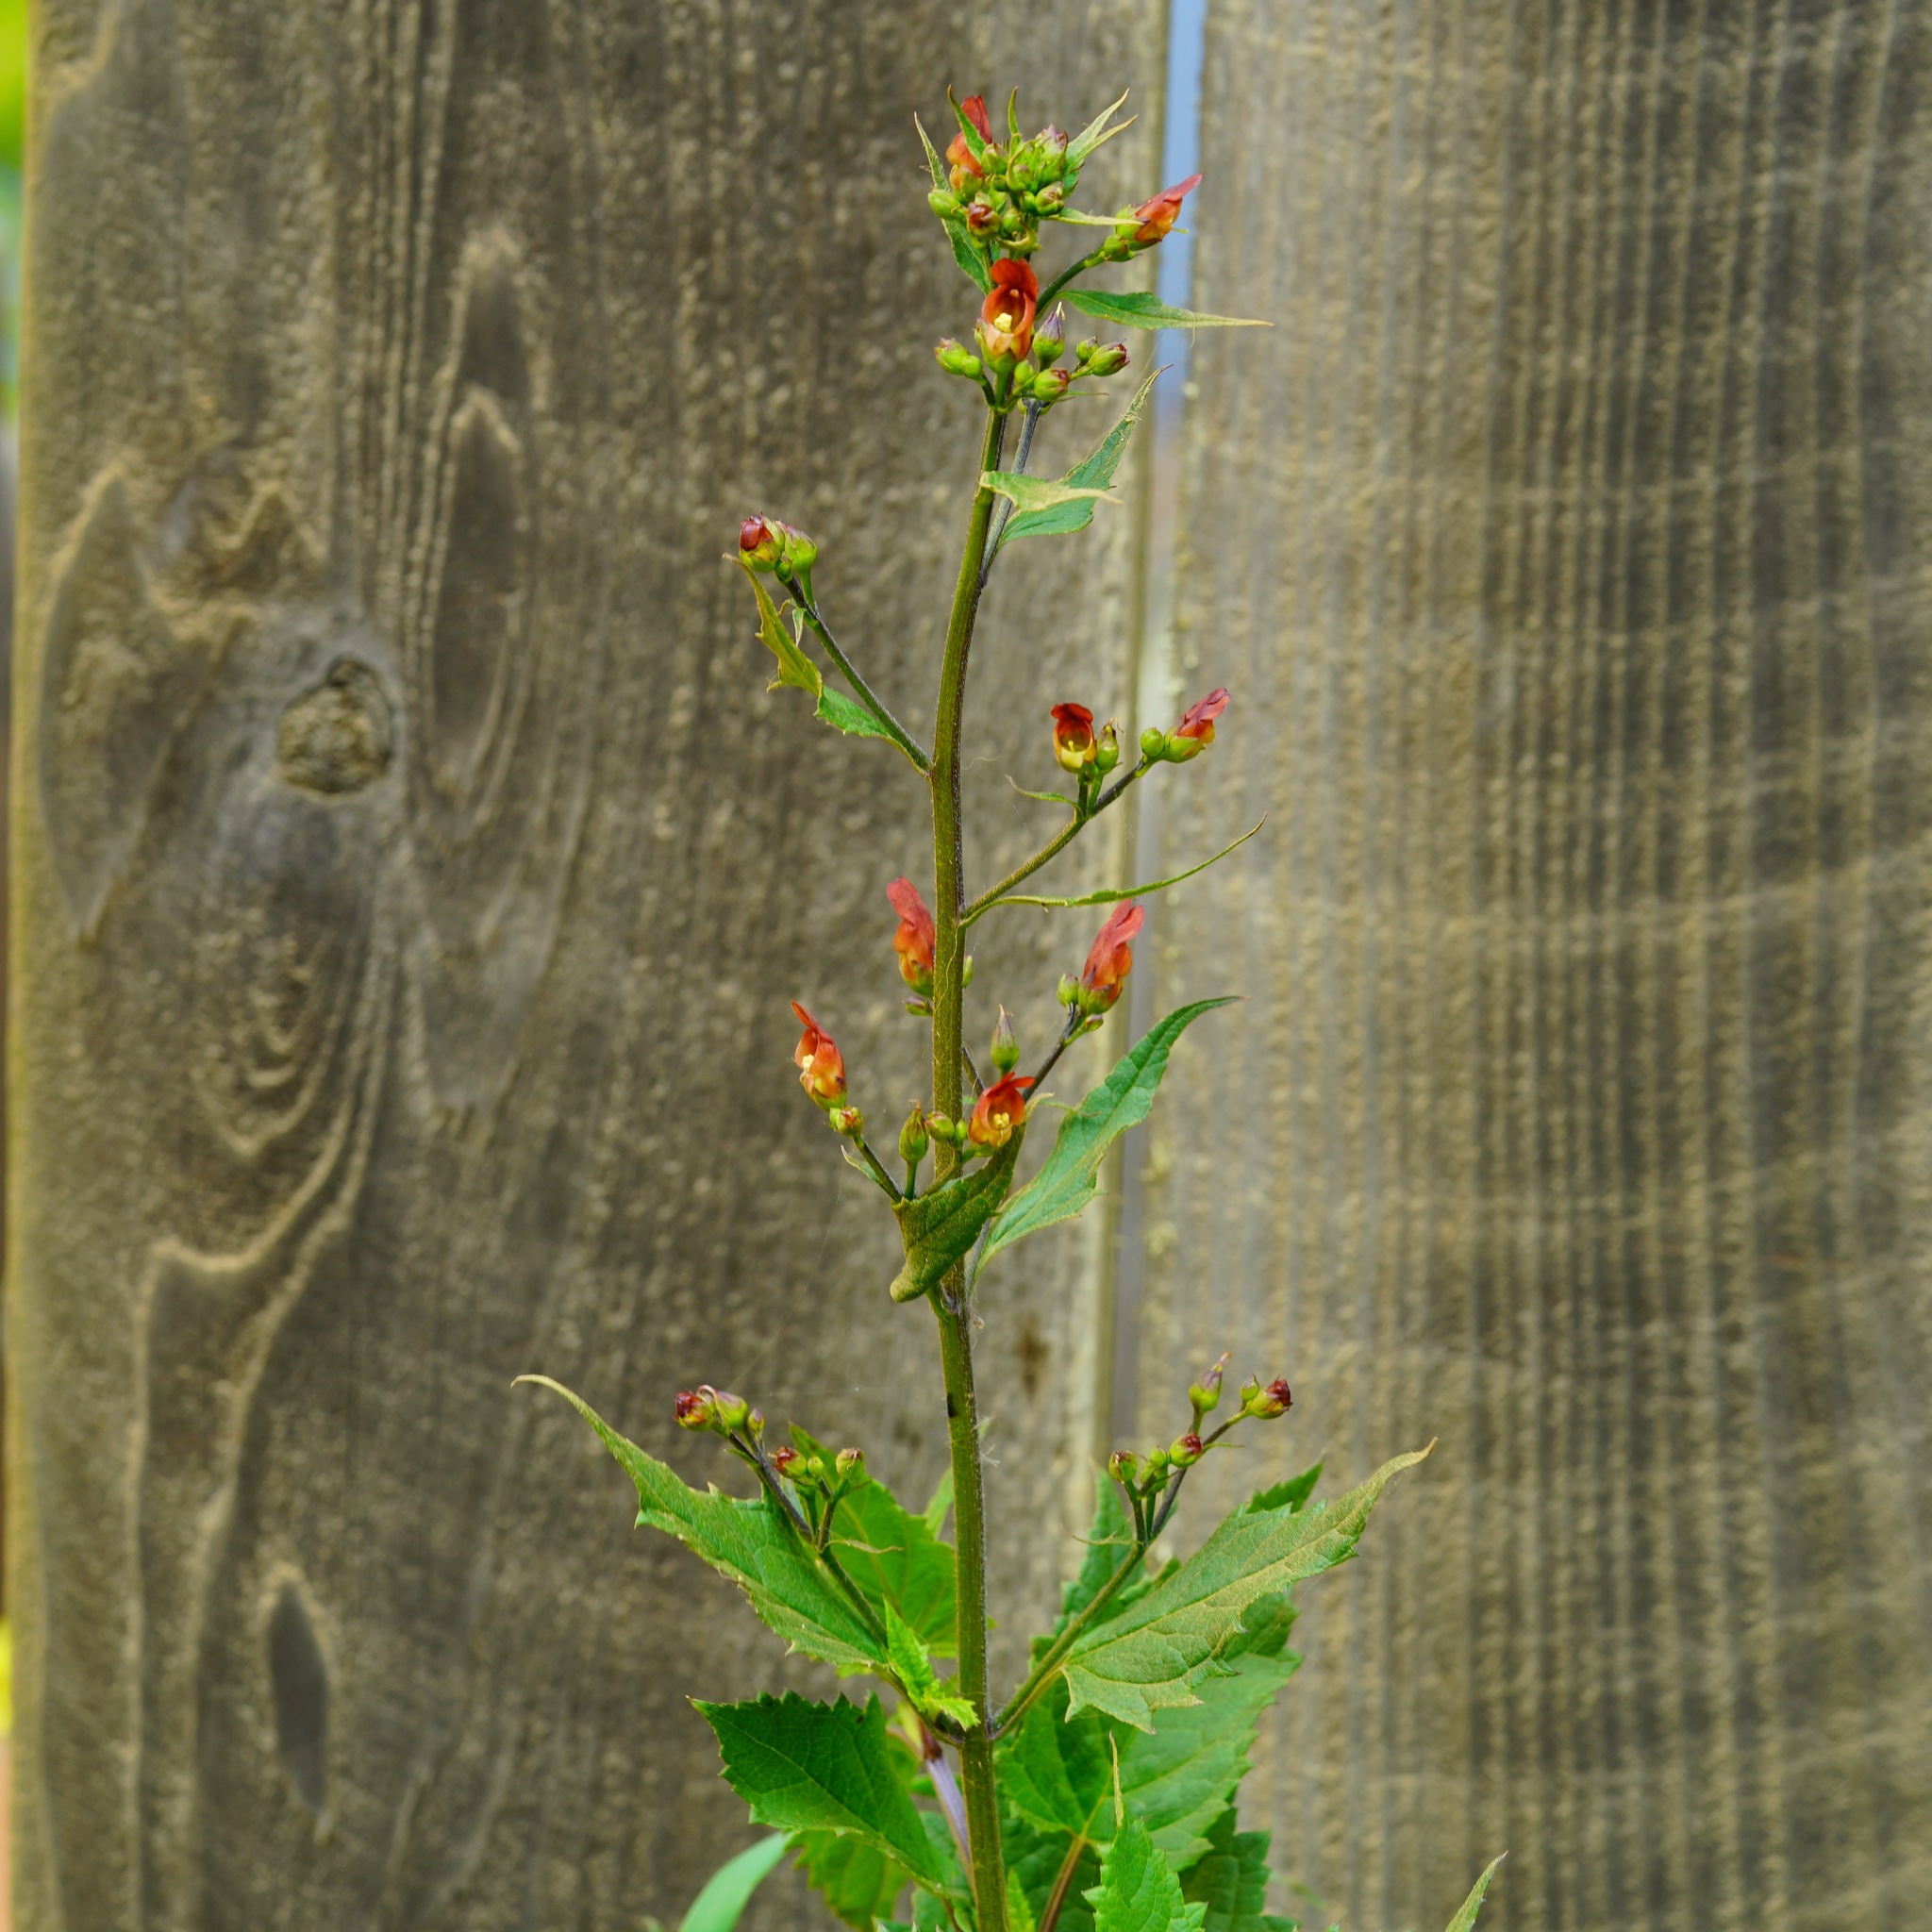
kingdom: Plantae
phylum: Tracheophyta
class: Magnoliopsida
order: Lamiales
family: Scrophulariaceae
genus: Scrophularia
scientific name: Scrophularia californica
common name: California figwort
